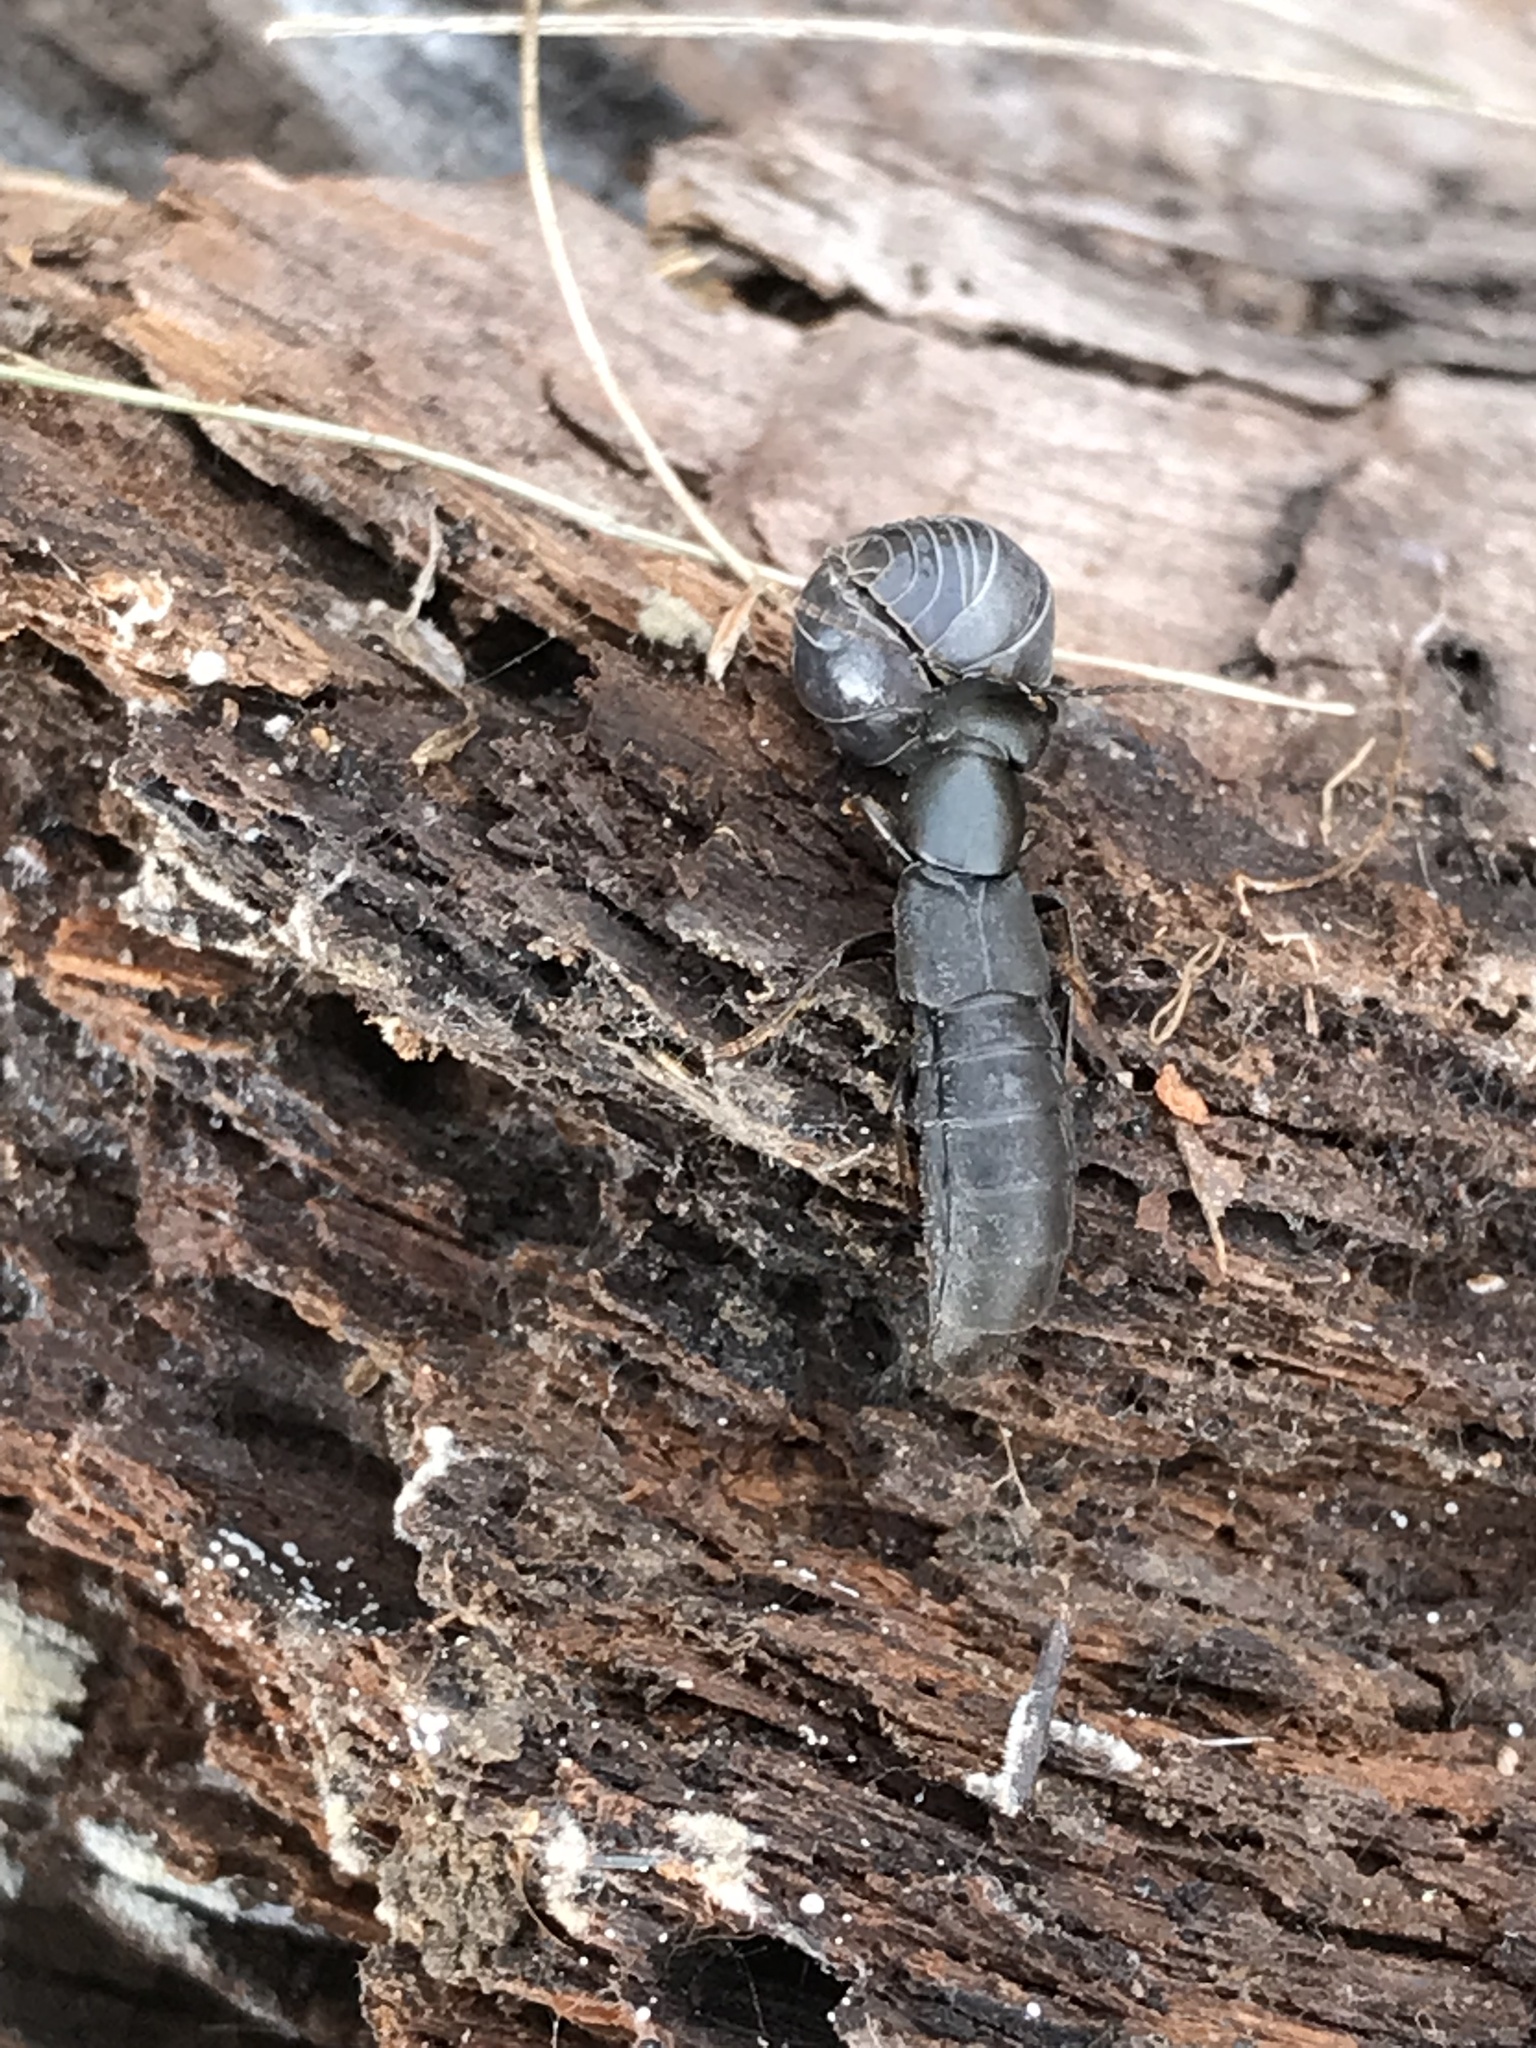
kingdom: Animalia
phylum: Arthropoda
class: Insecta
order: Coleoptera
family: Staphylinidae
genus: Ocypus
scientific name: Ocypus olens
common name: Devil's coach-horse
